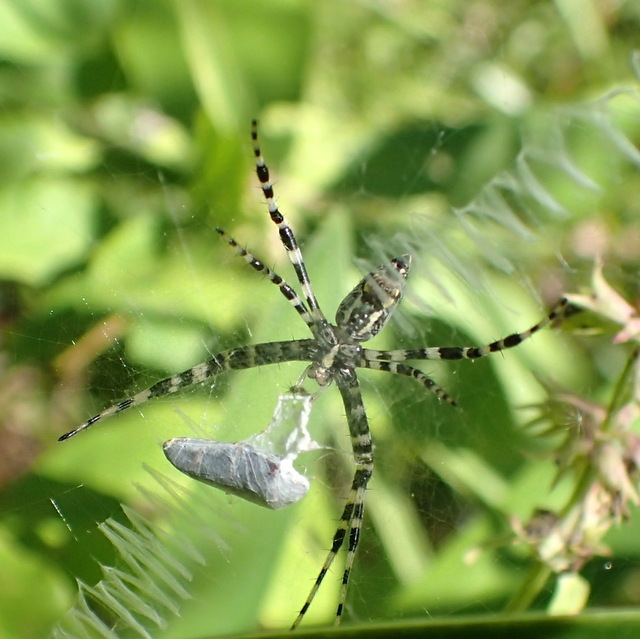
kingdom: Animalia
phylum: Arthropoda
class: Arachnida
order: Araneae
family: Araneidae
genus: Argiope
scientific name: Argiope aurantia
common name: Orb weavers
